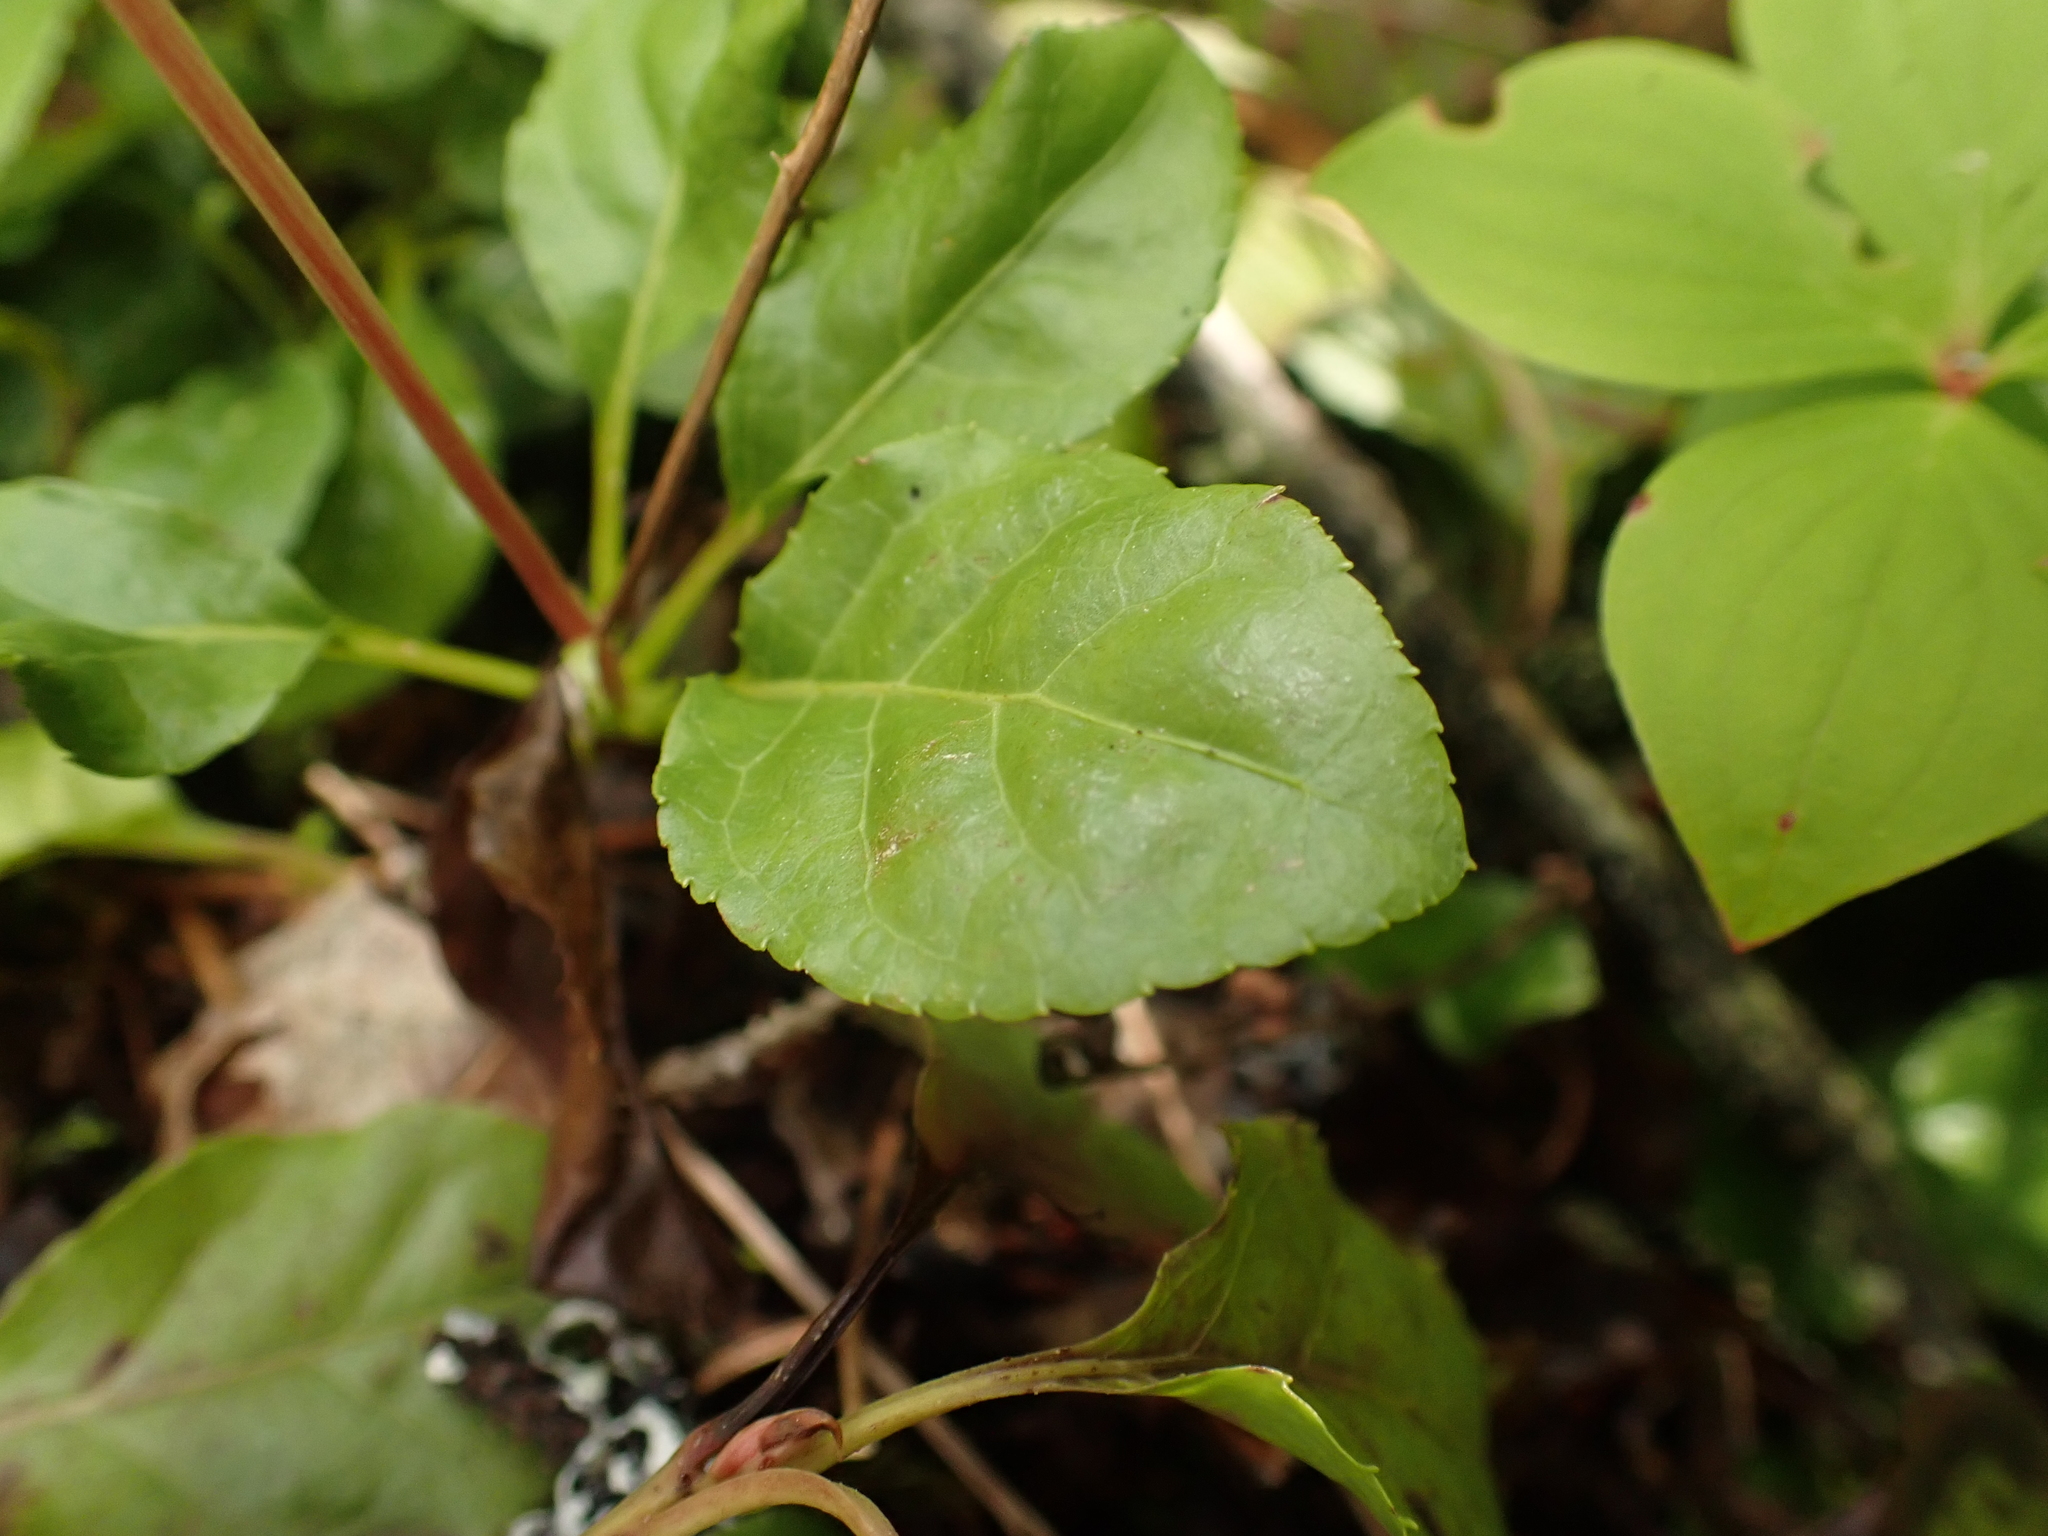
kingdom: Plantae
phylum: Tracheophyta
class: Magnoliopsida
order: Ericales
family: Ericaceae
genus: Orthilia
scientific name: Orthilia secunda
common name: One-sided orthilia
